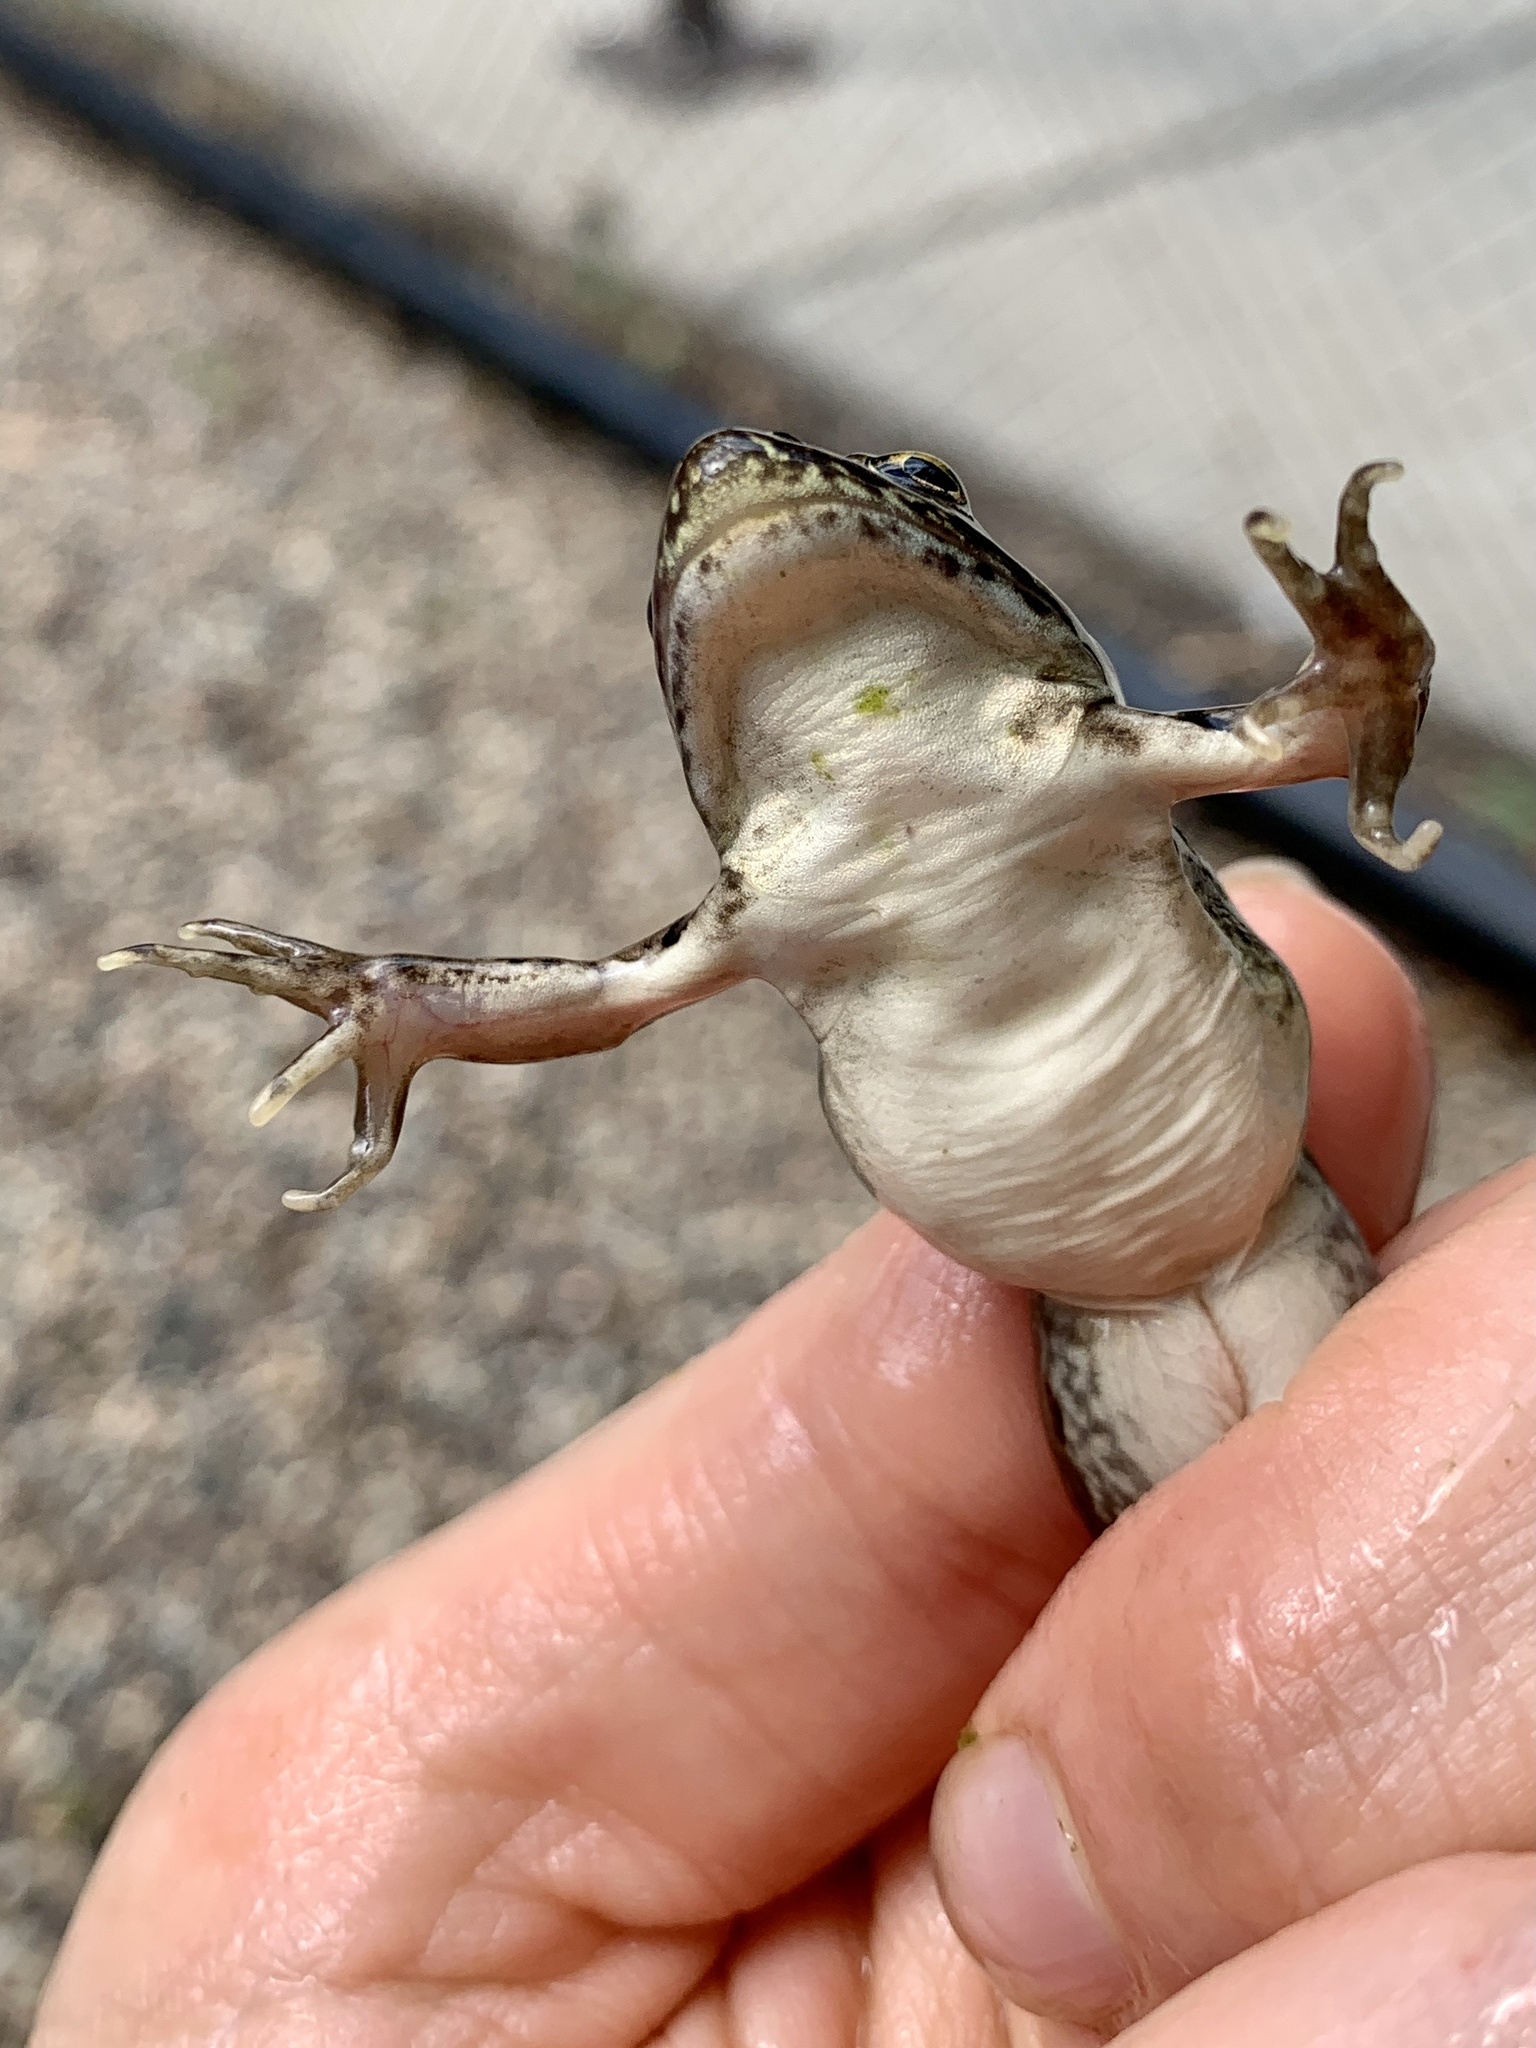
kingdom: Animalia
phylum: Chordata
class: Amphibia
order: Anura
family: Ranidae
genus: Lithobates
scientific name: Lithobates pipiens
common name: Northern leopard frog
